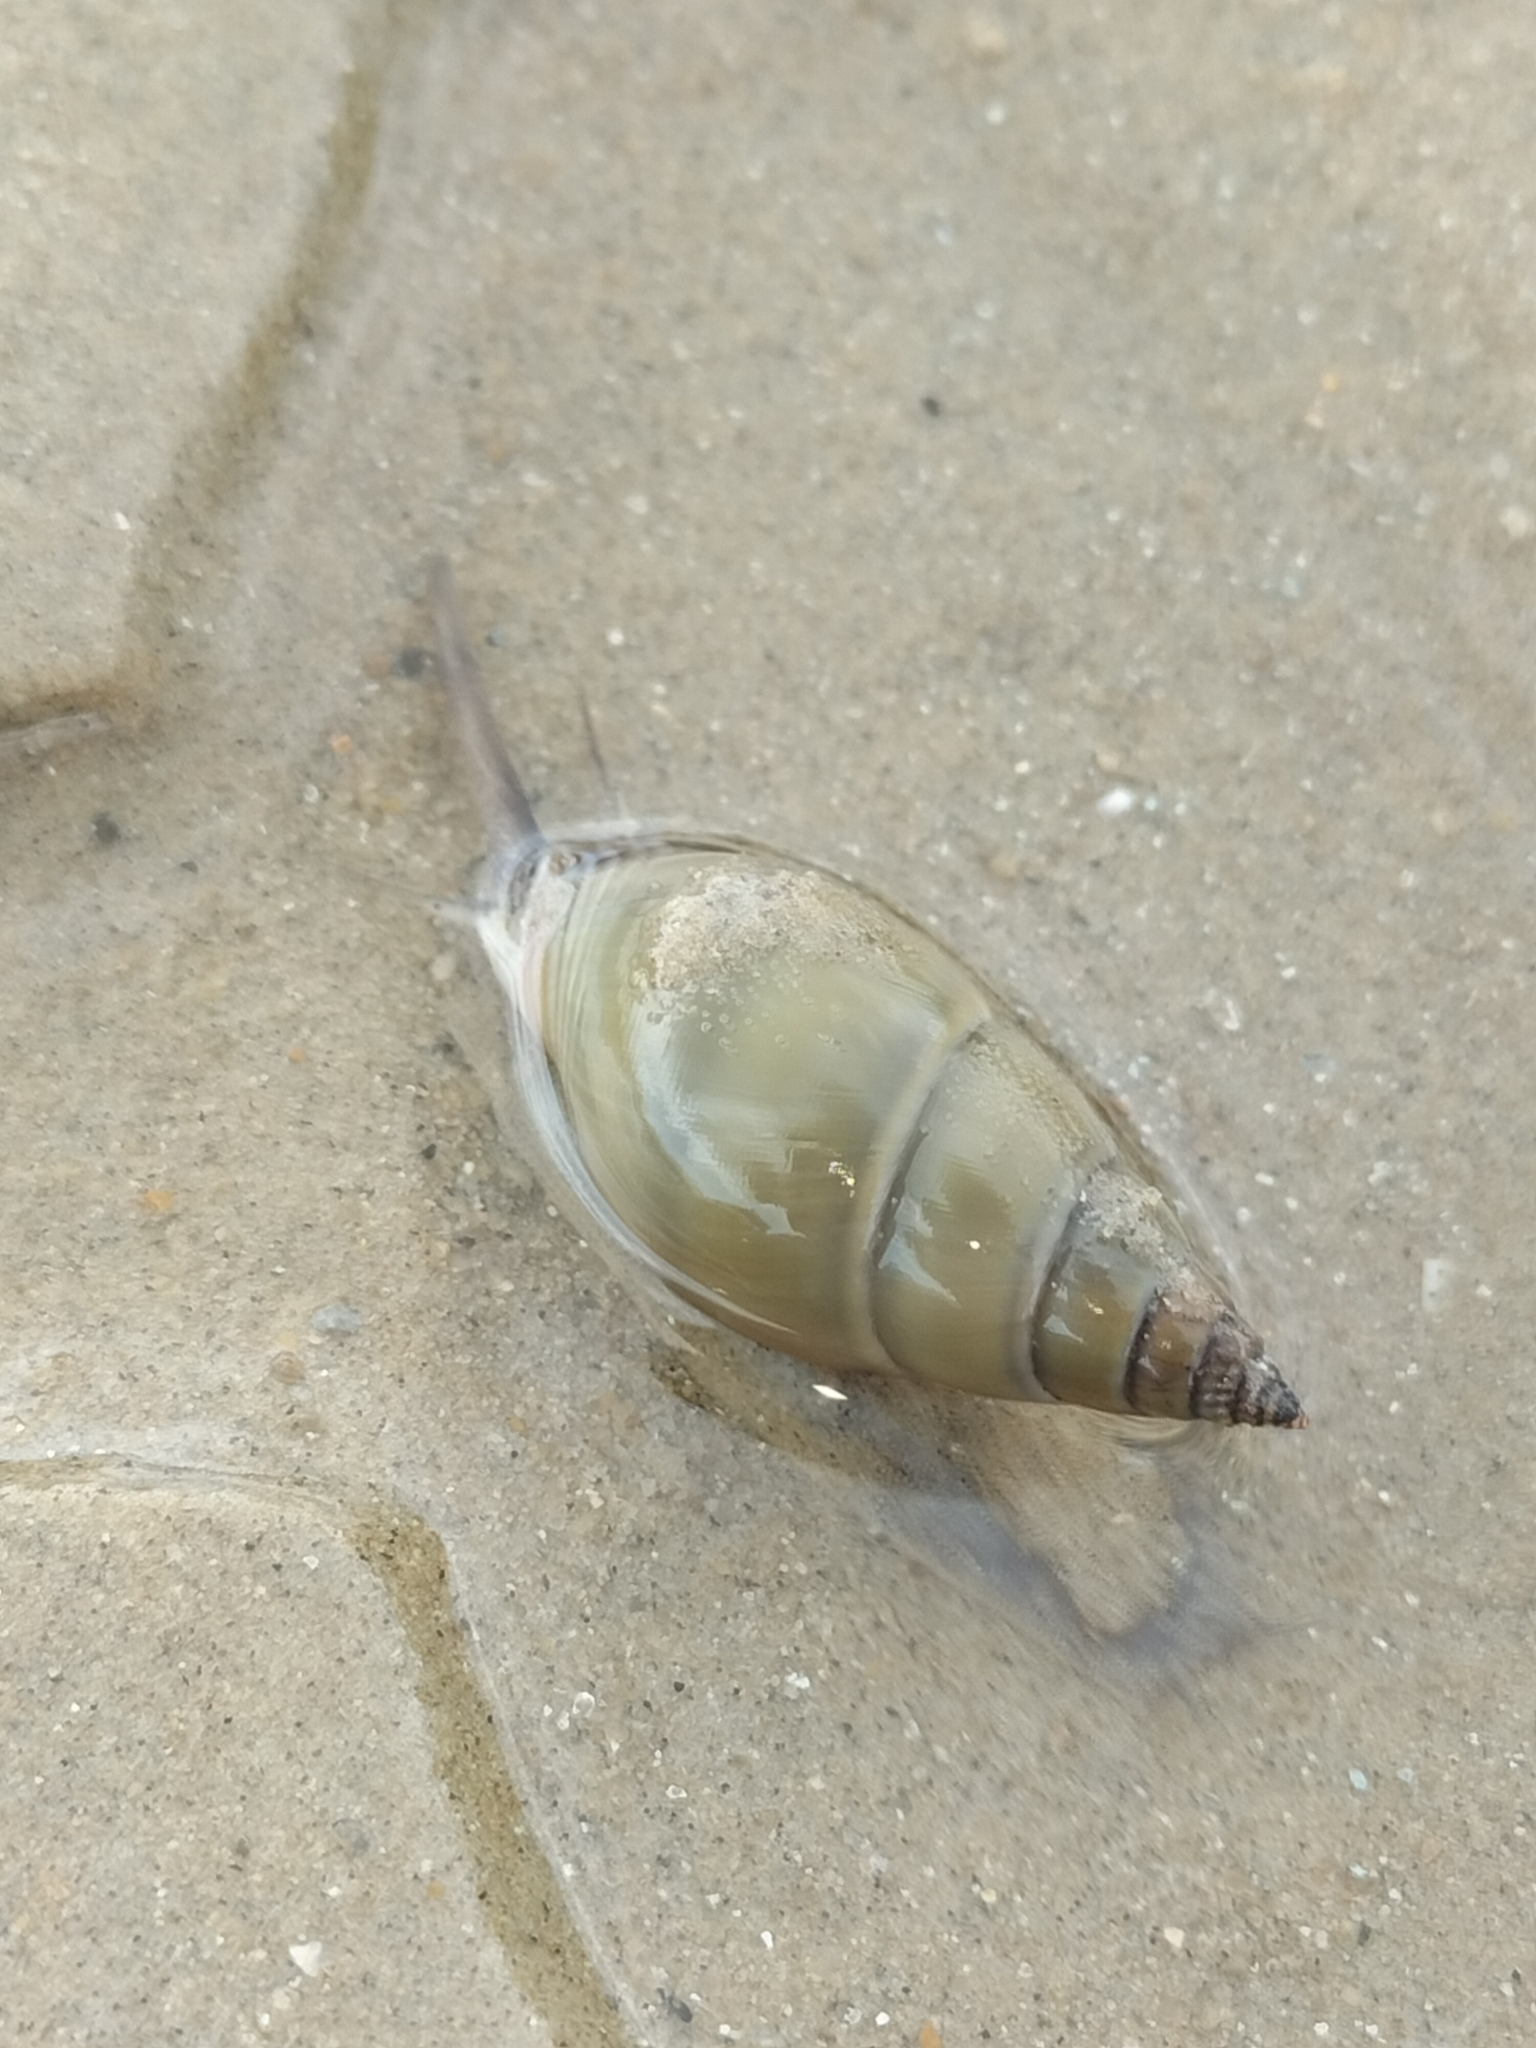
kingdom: Animalia
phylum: Mollusca
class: Gastropoda
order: Neogastropoda
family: Nassariidae
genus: Nassarius
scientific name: Nassarius dorsatus
